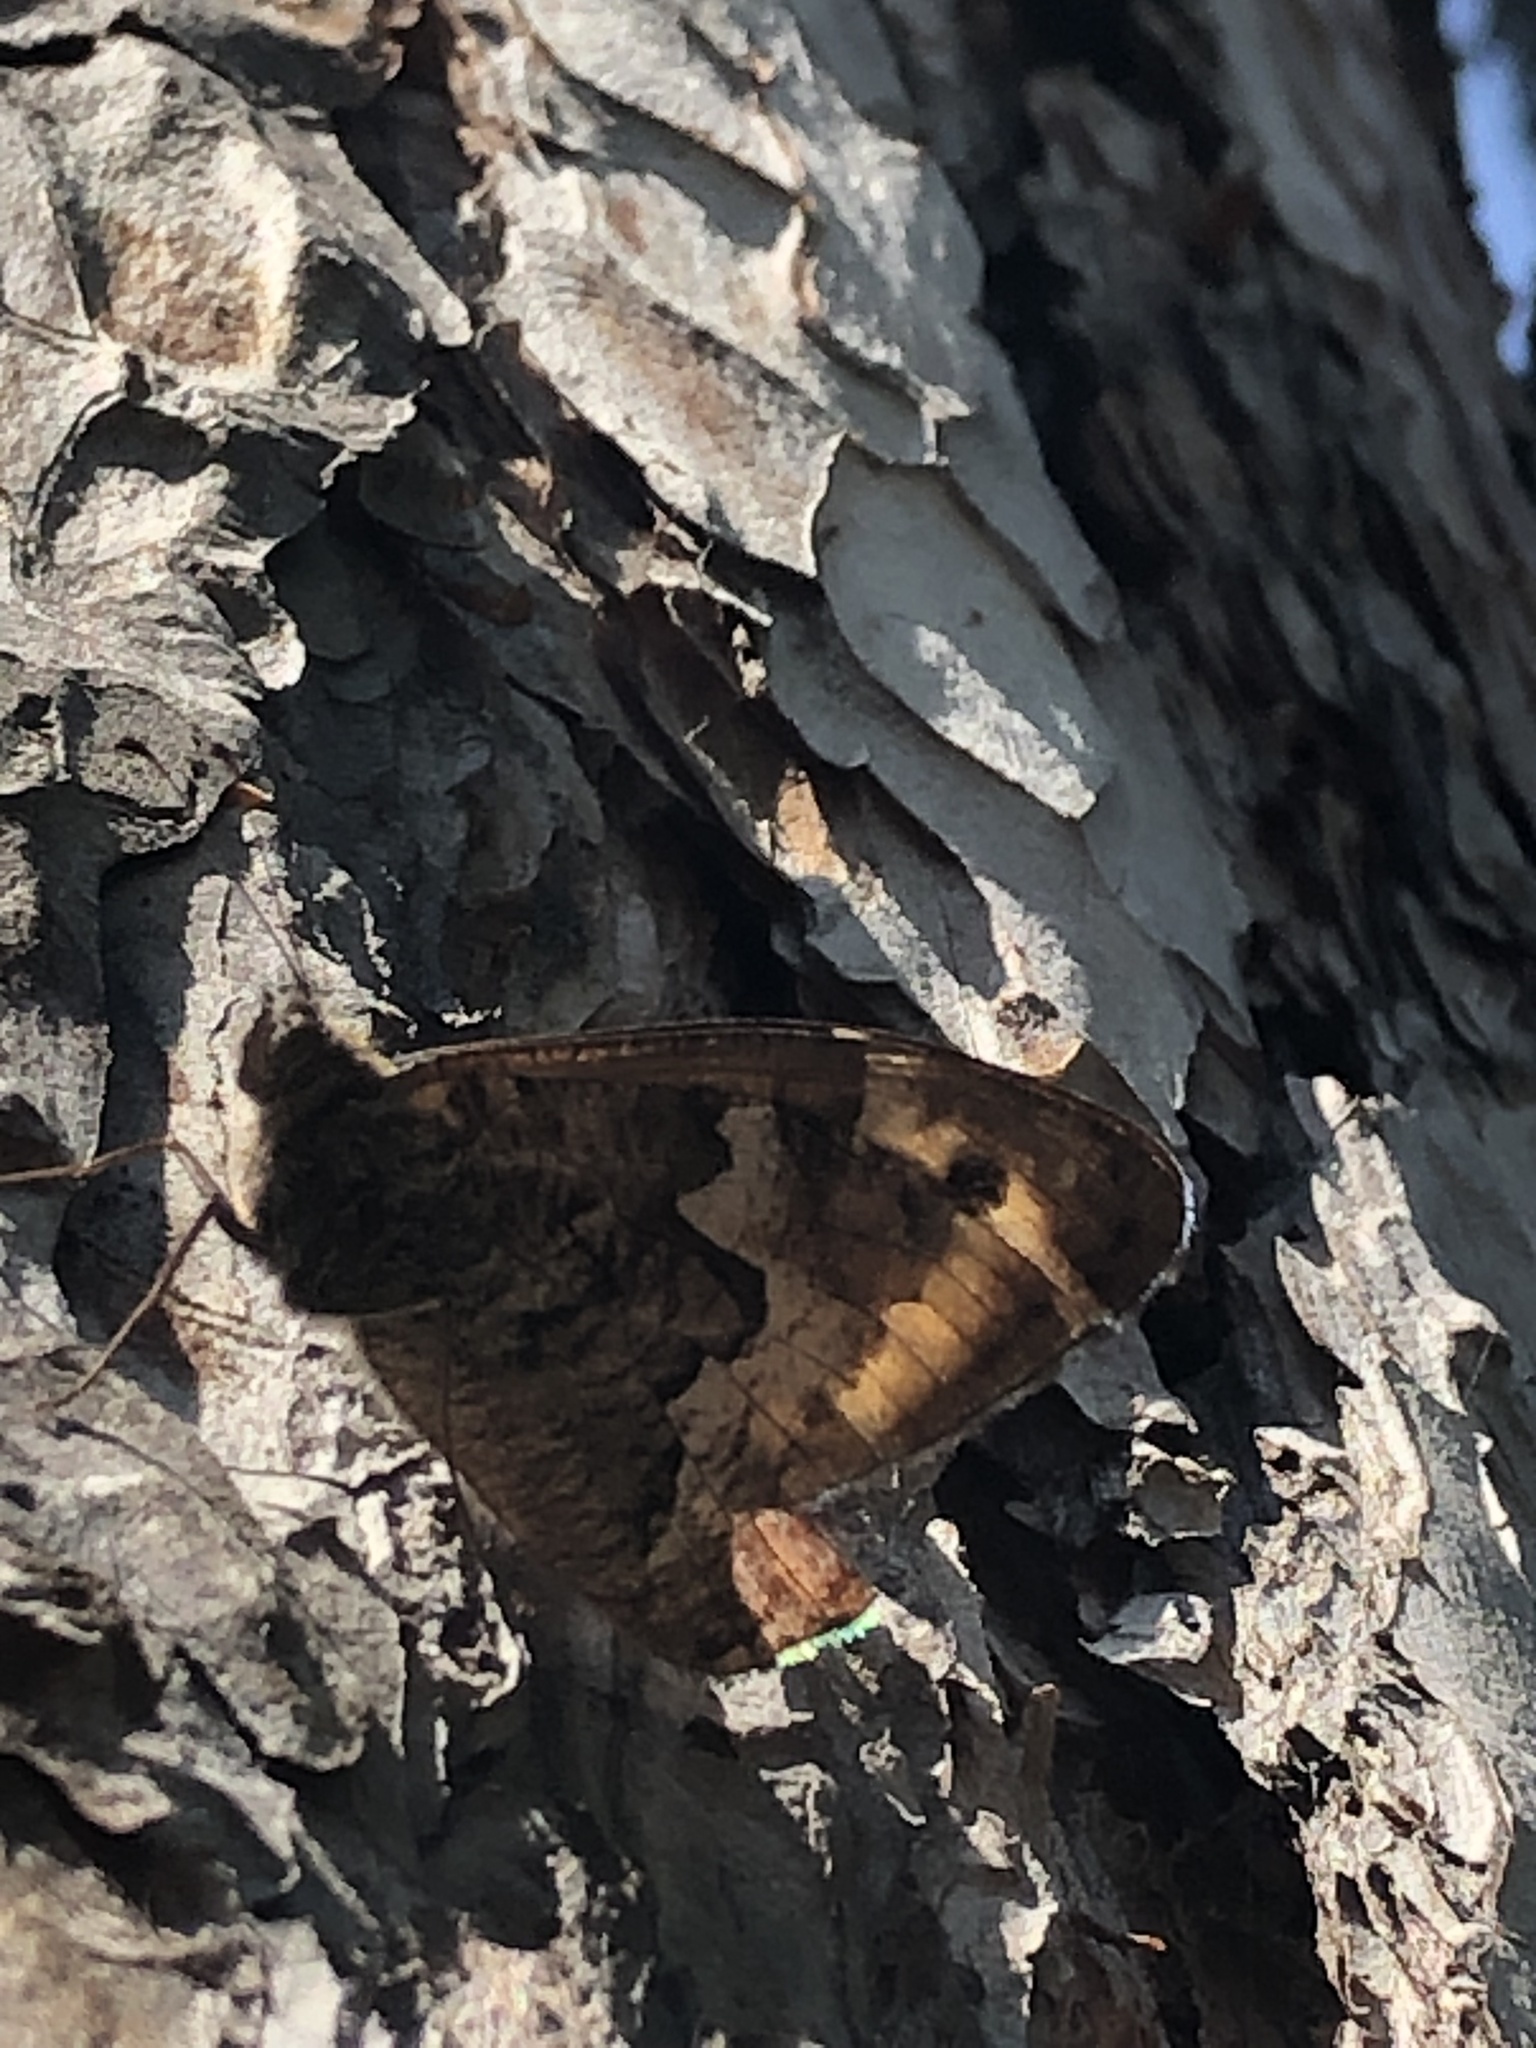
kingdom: Animalia
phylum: Arthropoda
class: Insecta
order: Lepidoptera
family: Nymphalidae
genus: Hipparchia
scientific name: Hipparchia semele
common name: Grayling
